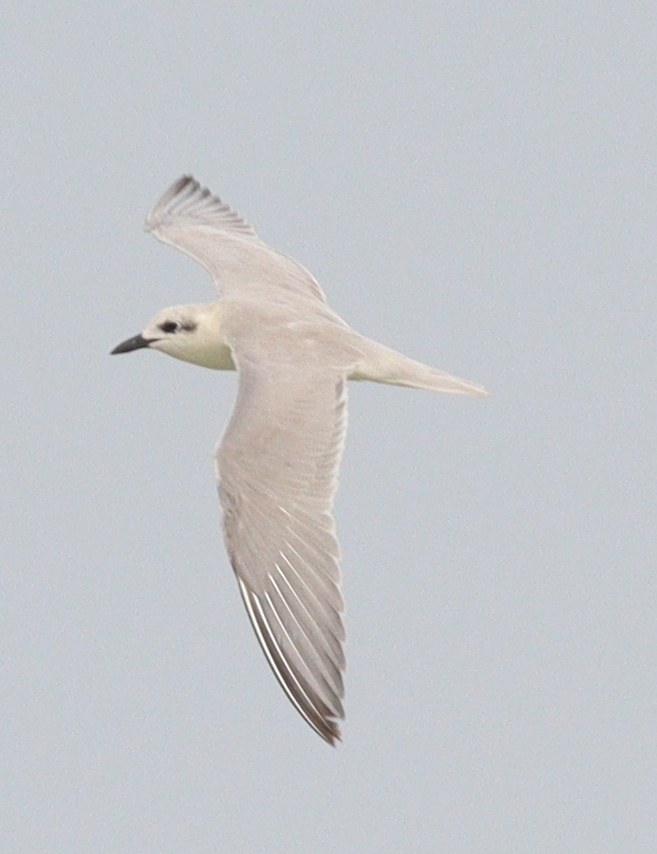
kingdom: Animalia
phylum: Chordata
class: Aves
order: Charadriiformes
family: Laridae
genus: Gelochelidon
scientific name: Gelochelidon nilotica
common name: Gull-billed tern
